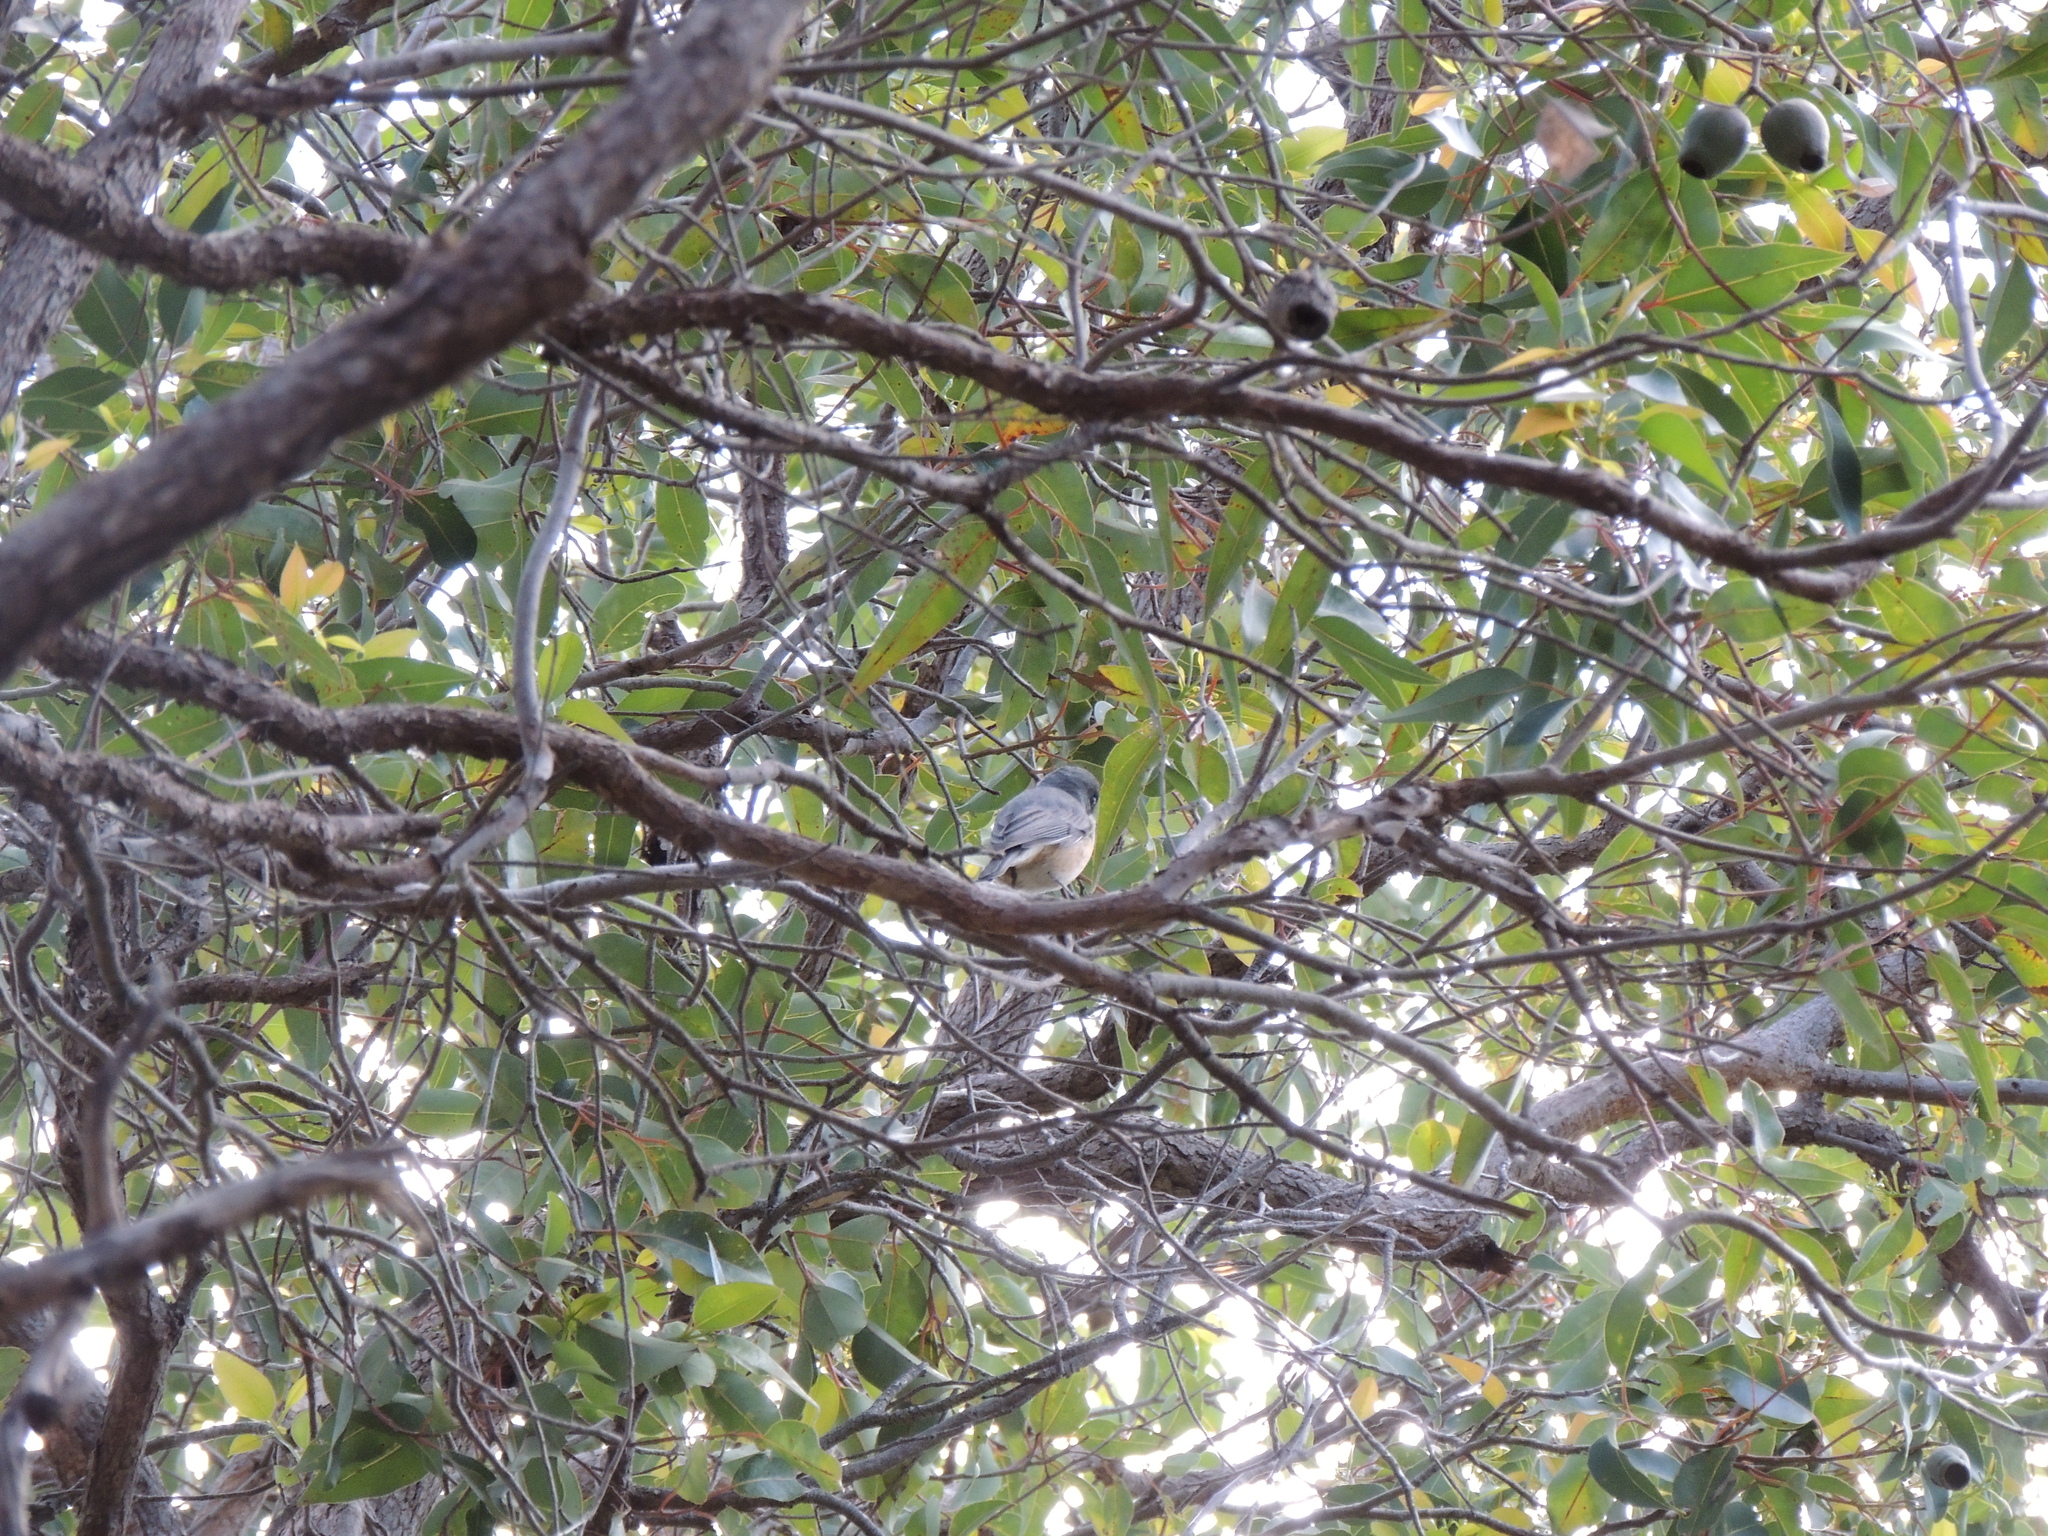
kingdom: Animalia
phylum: Chordata
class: Aves
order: Passeriformes
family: Pachycephalidae
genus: Pachycephala
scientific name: Pachycephala rufiventris
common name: Rufous whistler
